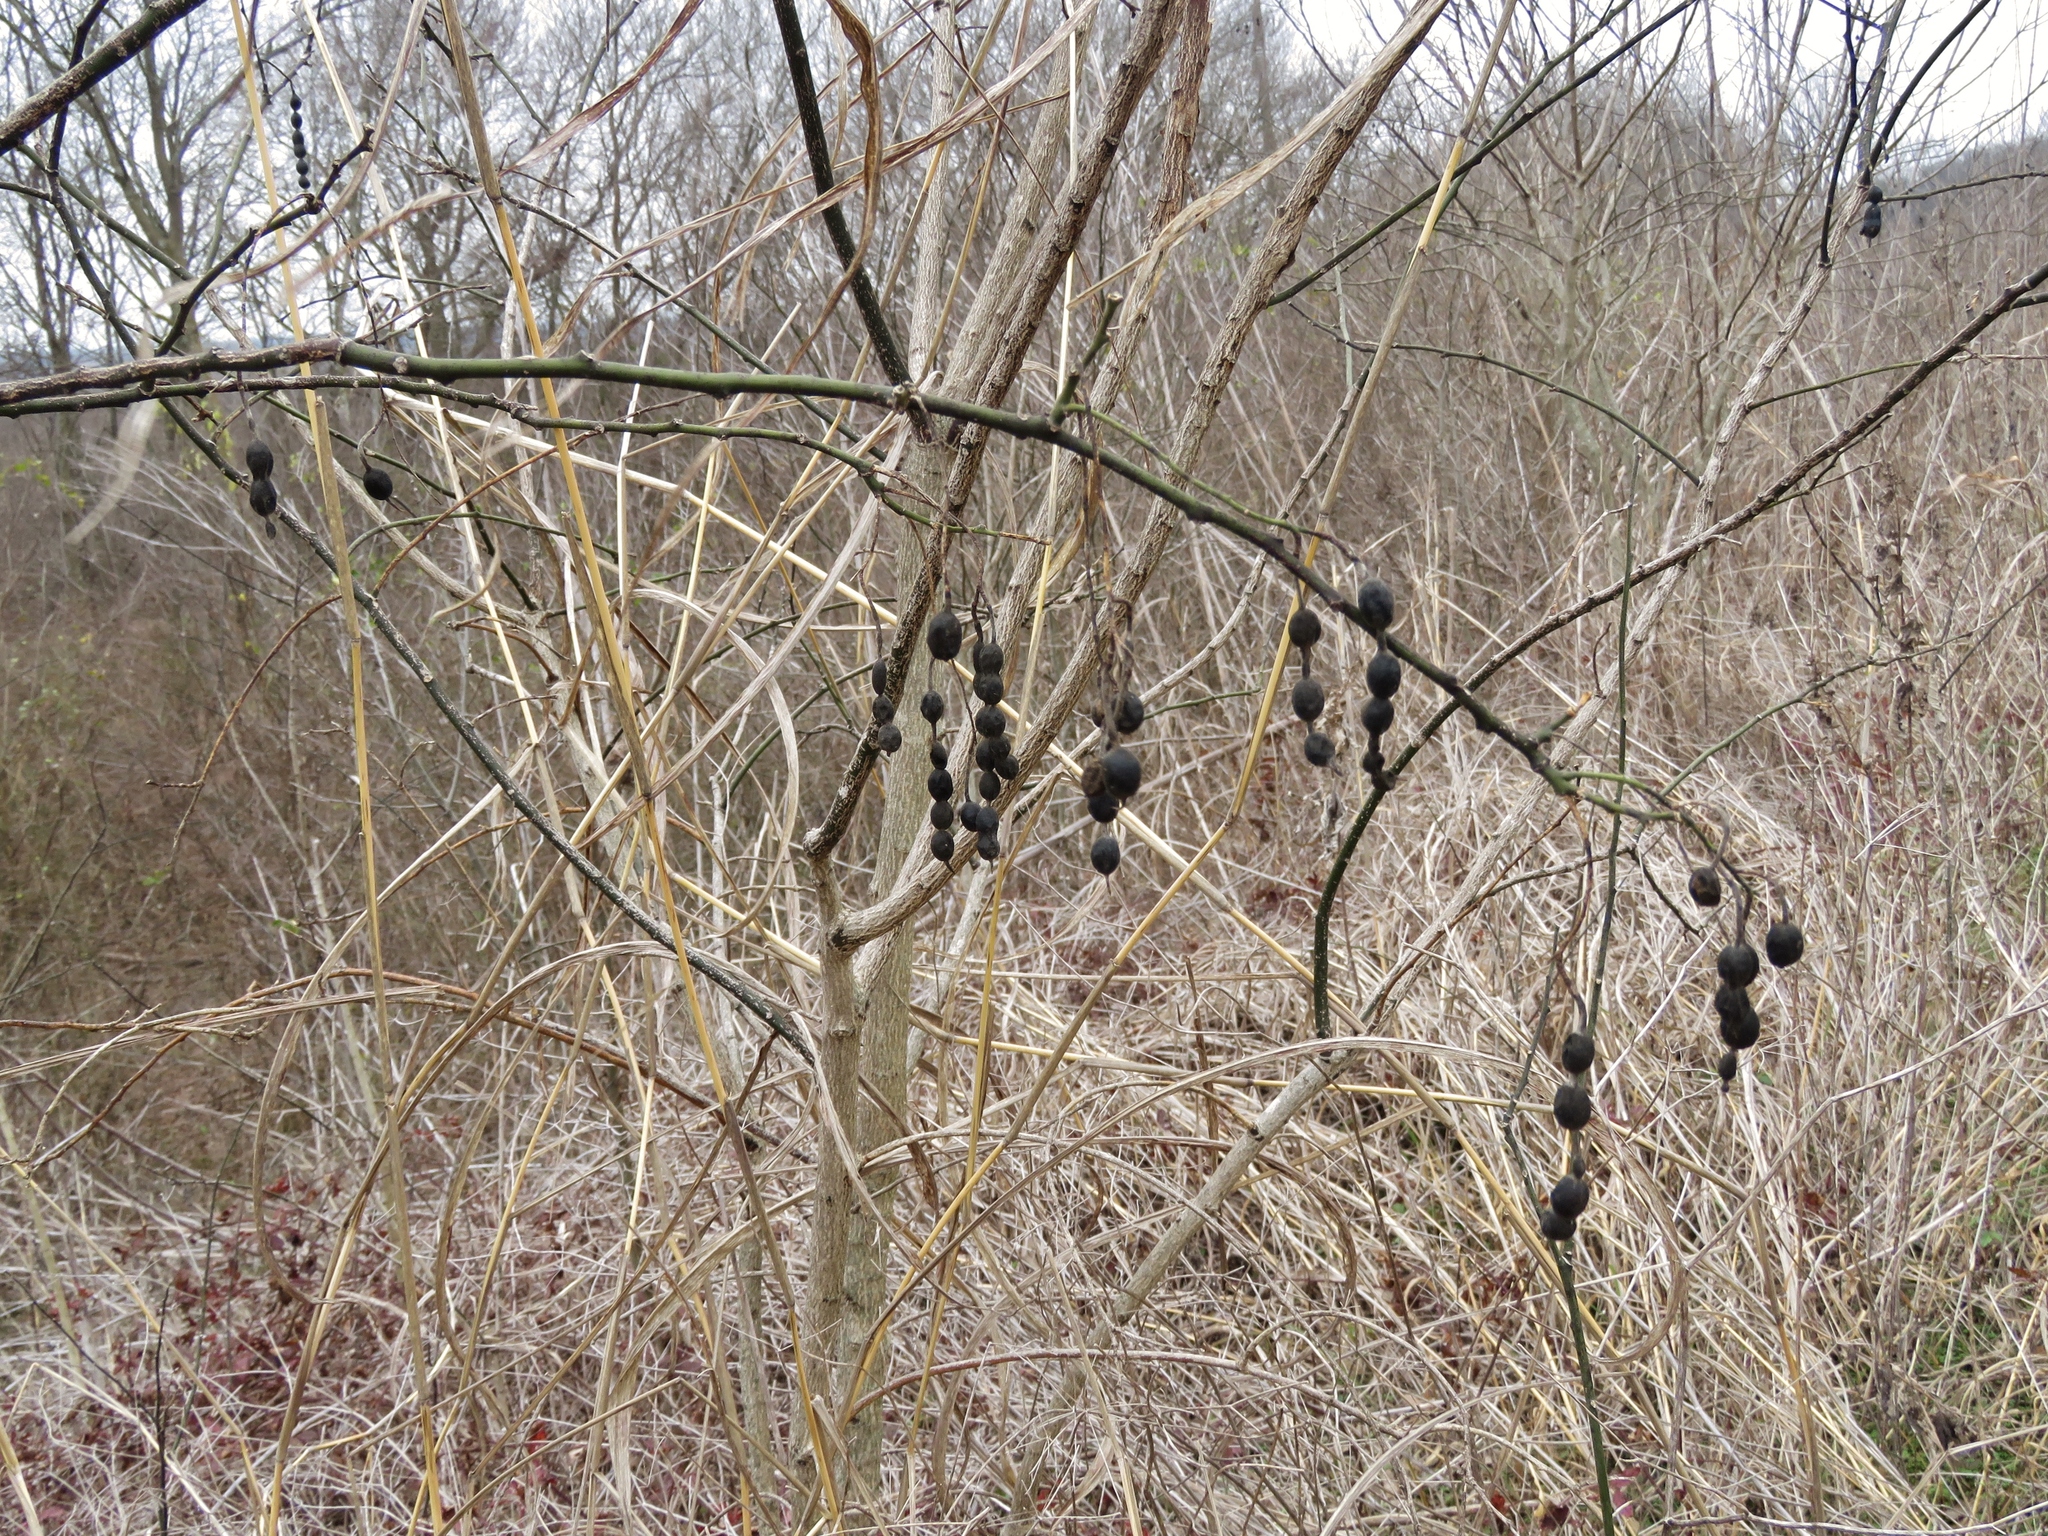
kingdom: Plantae
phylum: Tracheophyta
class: Magnoliopsida
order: Fabales
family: Fabaceae
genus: Styphnolobium
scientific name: Styphnolobium affine
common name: Texas sophora
